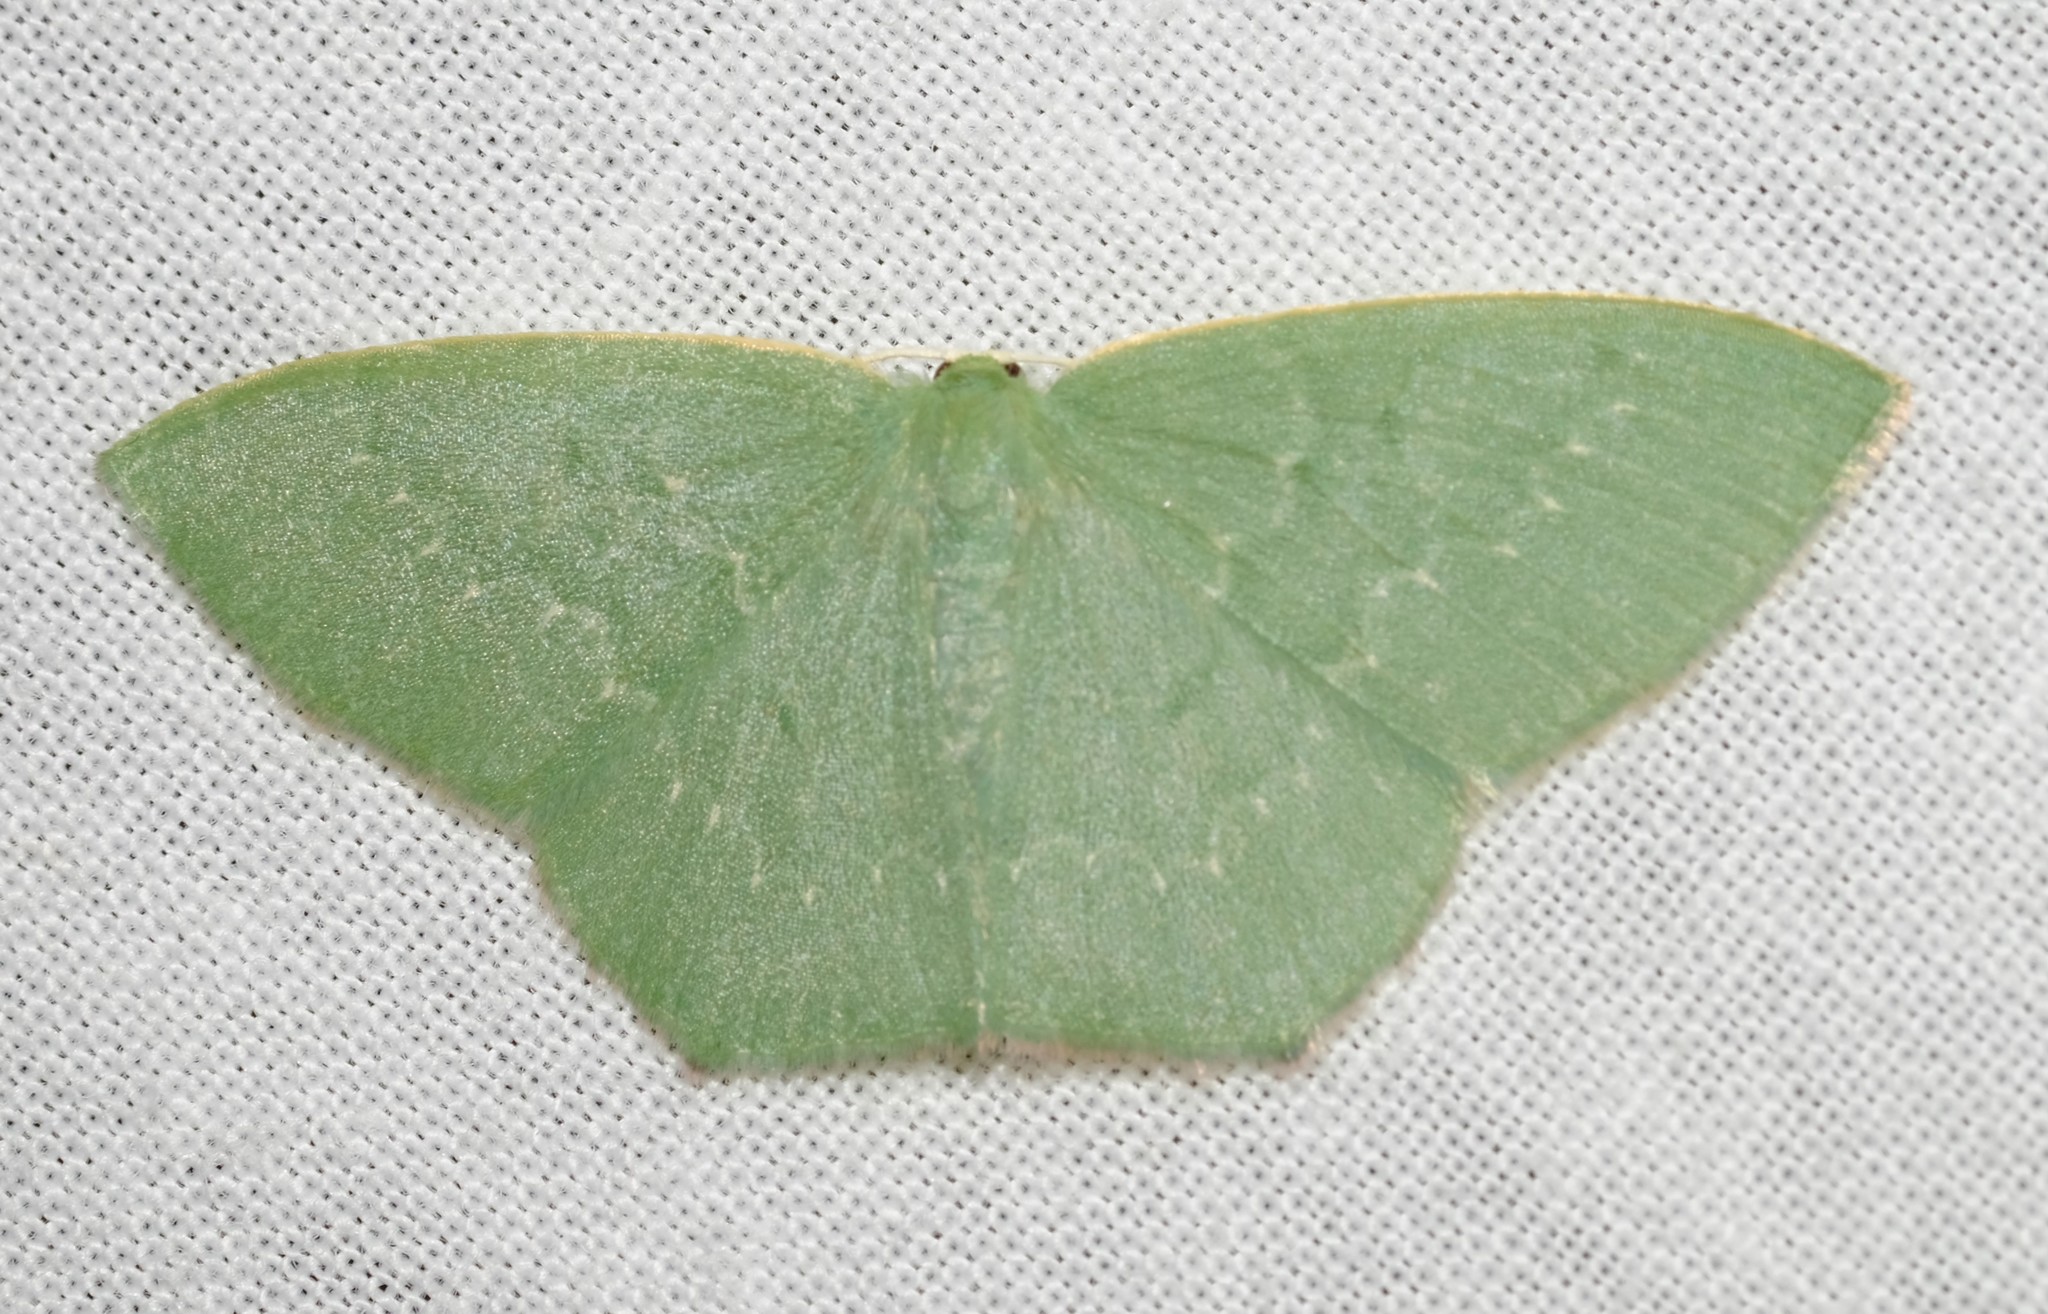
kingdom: Animalia
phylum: Arthropoda
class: Insecta
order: Lepidoptera
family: Geometridae
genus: Maxates
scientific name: Maxates calaina
